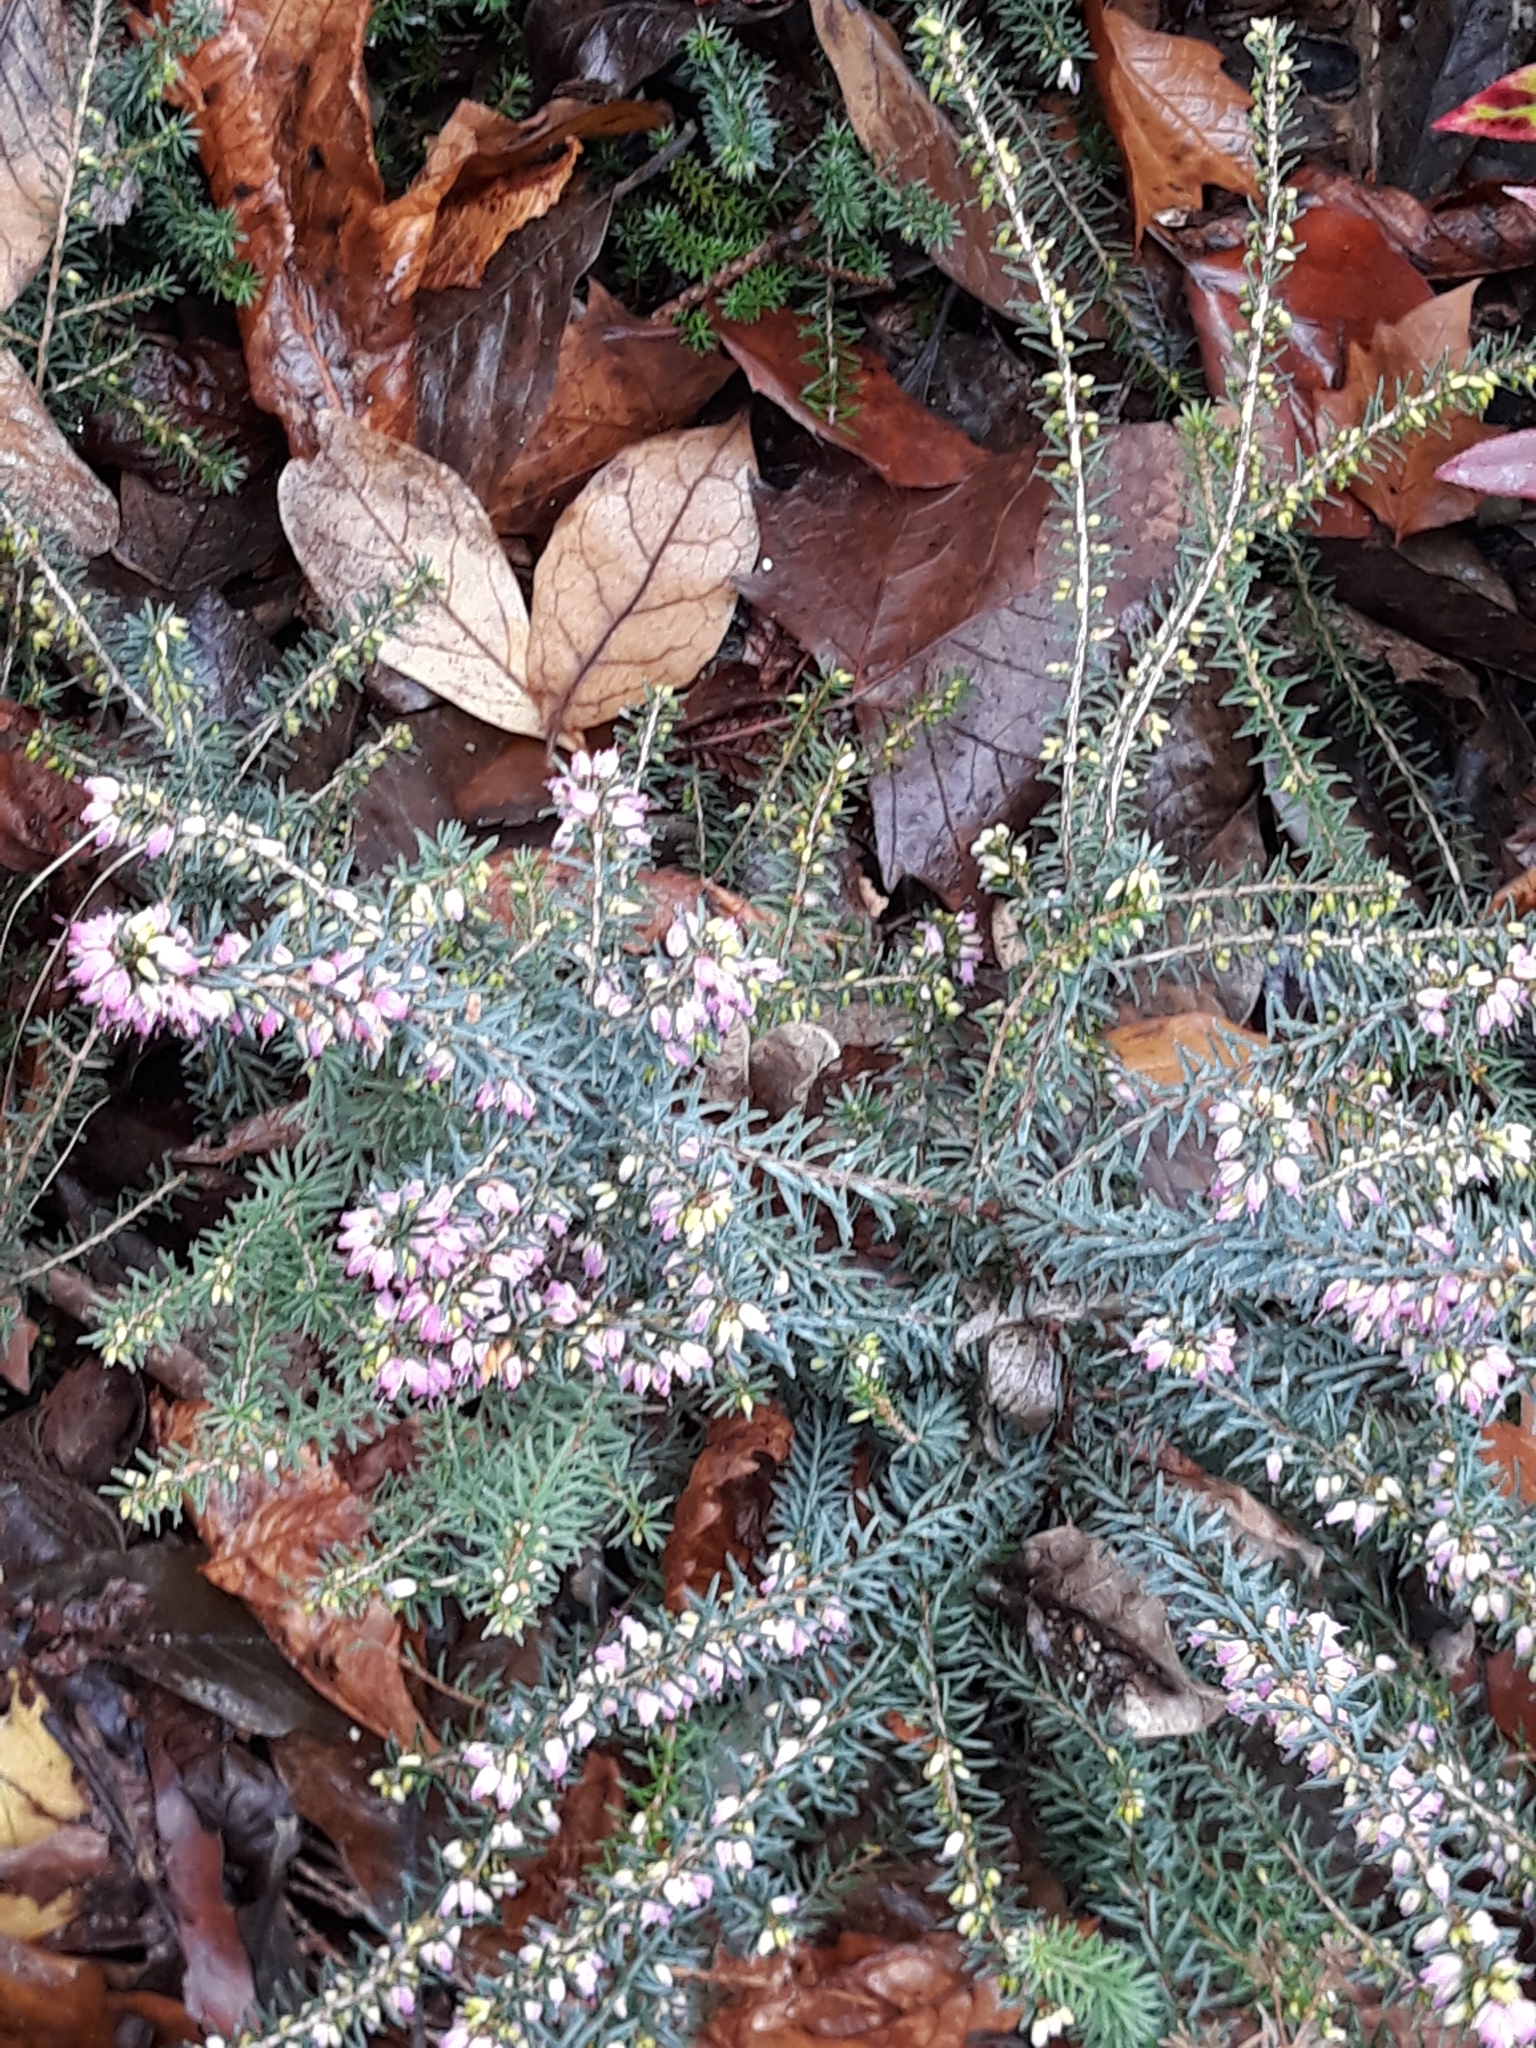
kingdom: Plantae
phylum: Tracheophyta
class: Magnoliopsida
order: Ericales
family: Ericaceae
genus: Erica
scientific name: Erica cinerea
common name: Bell heather
